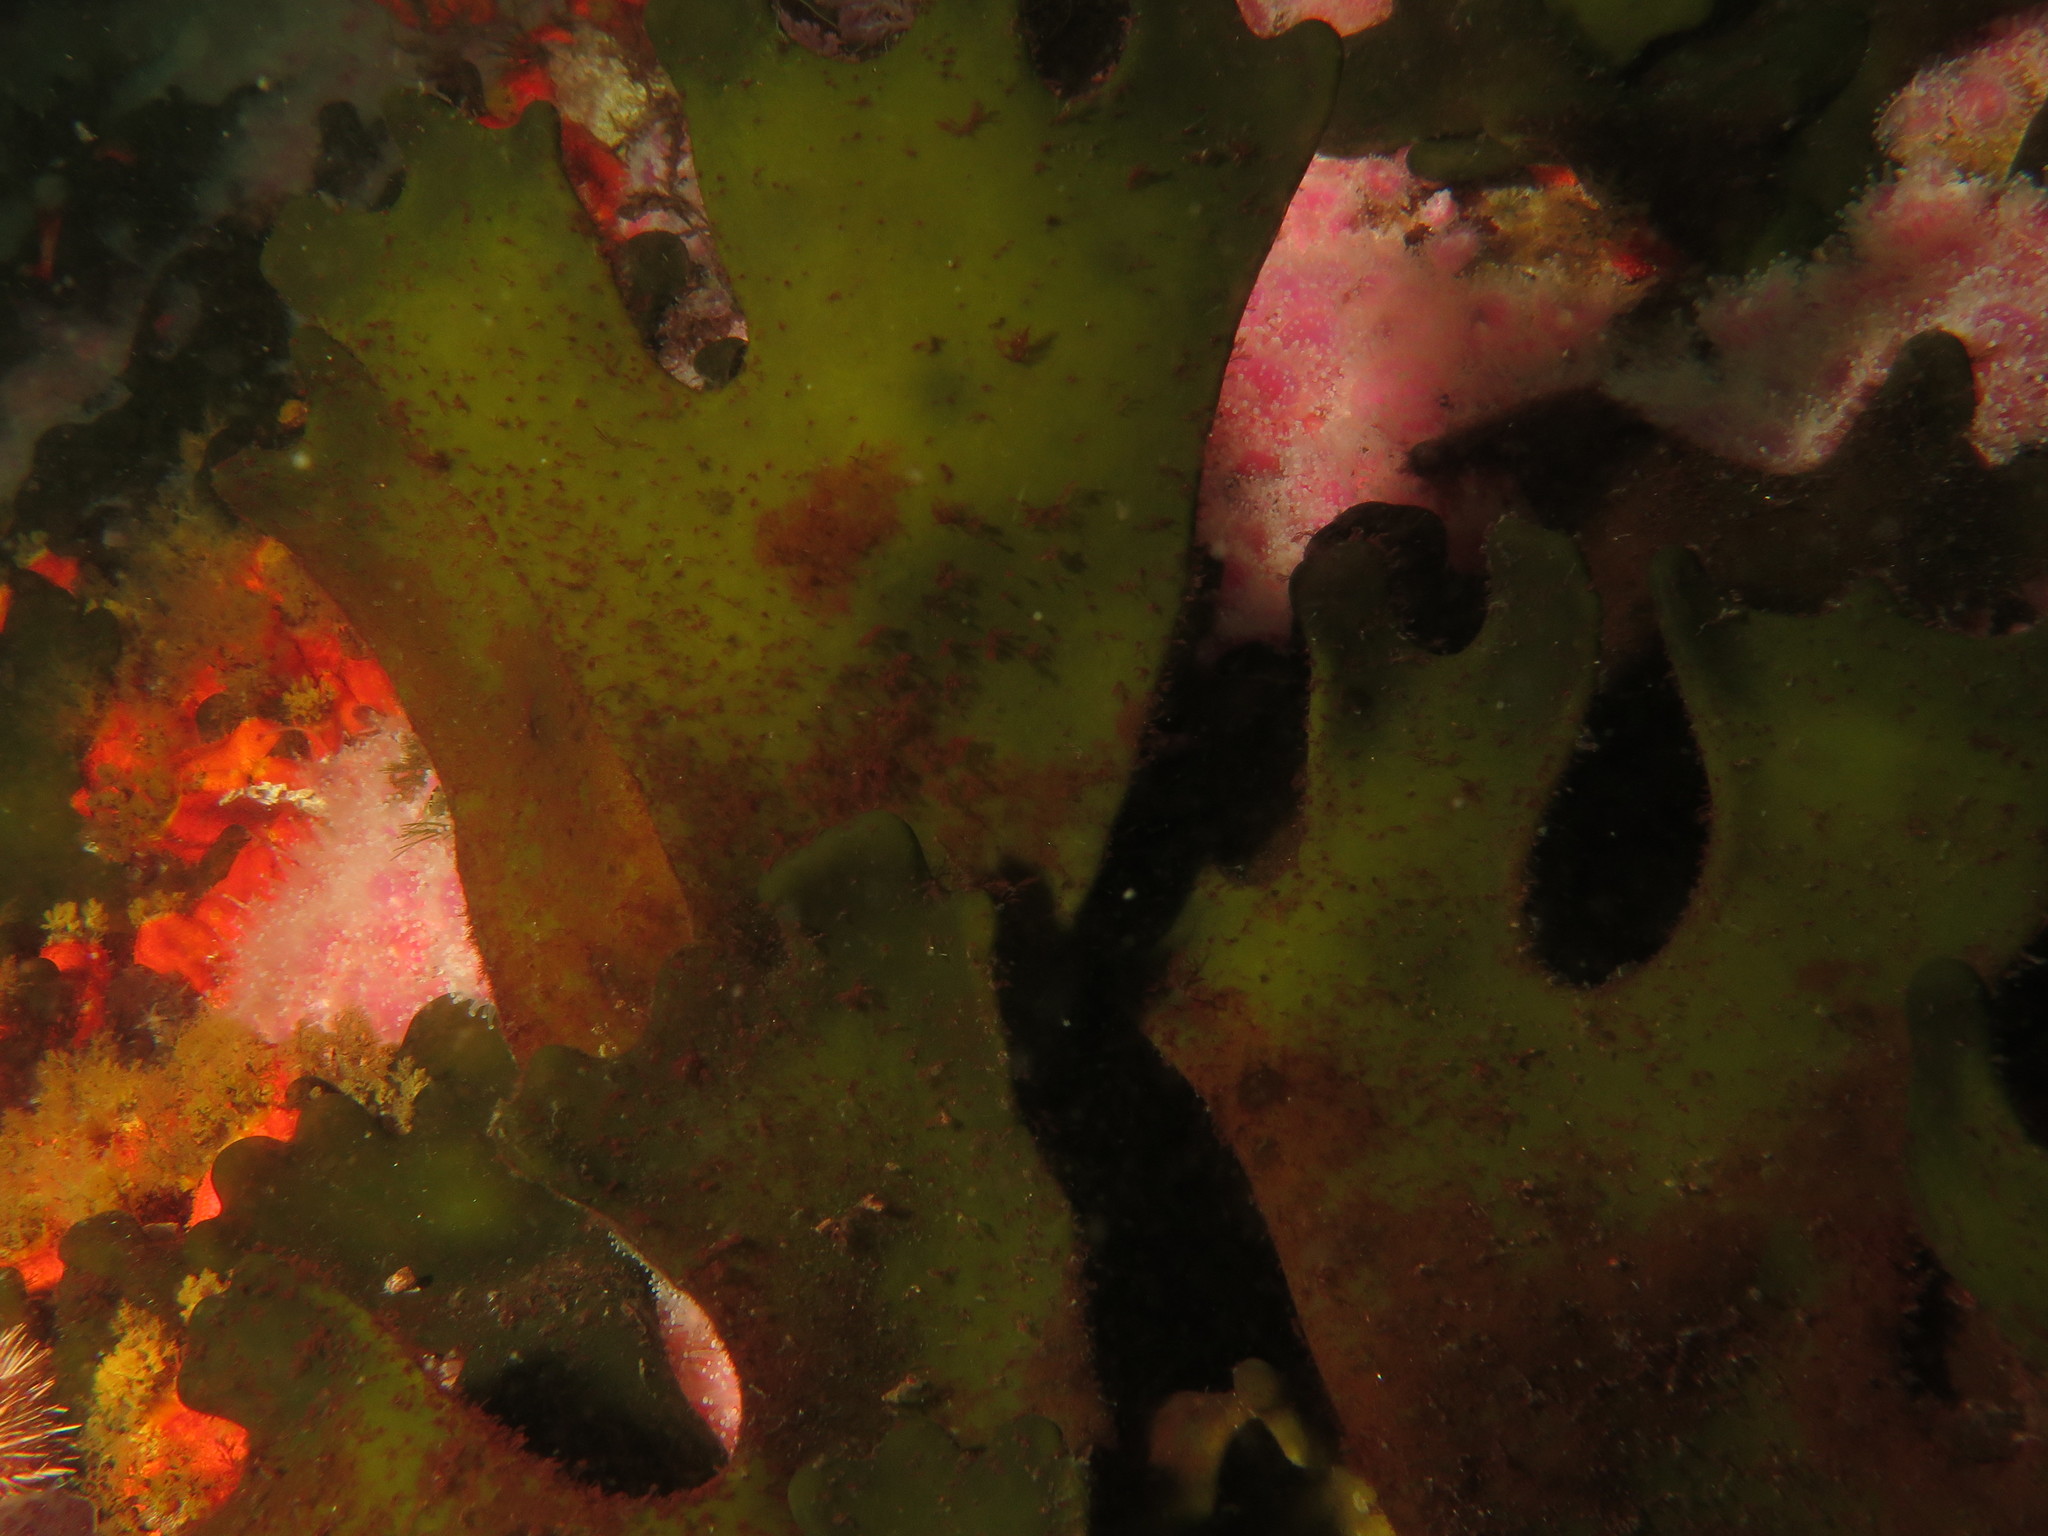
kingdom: Plantae
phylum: Chlorophyta
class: Ulvophyceae
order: Bryopsidales
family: Codiaceae
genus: Codium
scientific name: Codium
